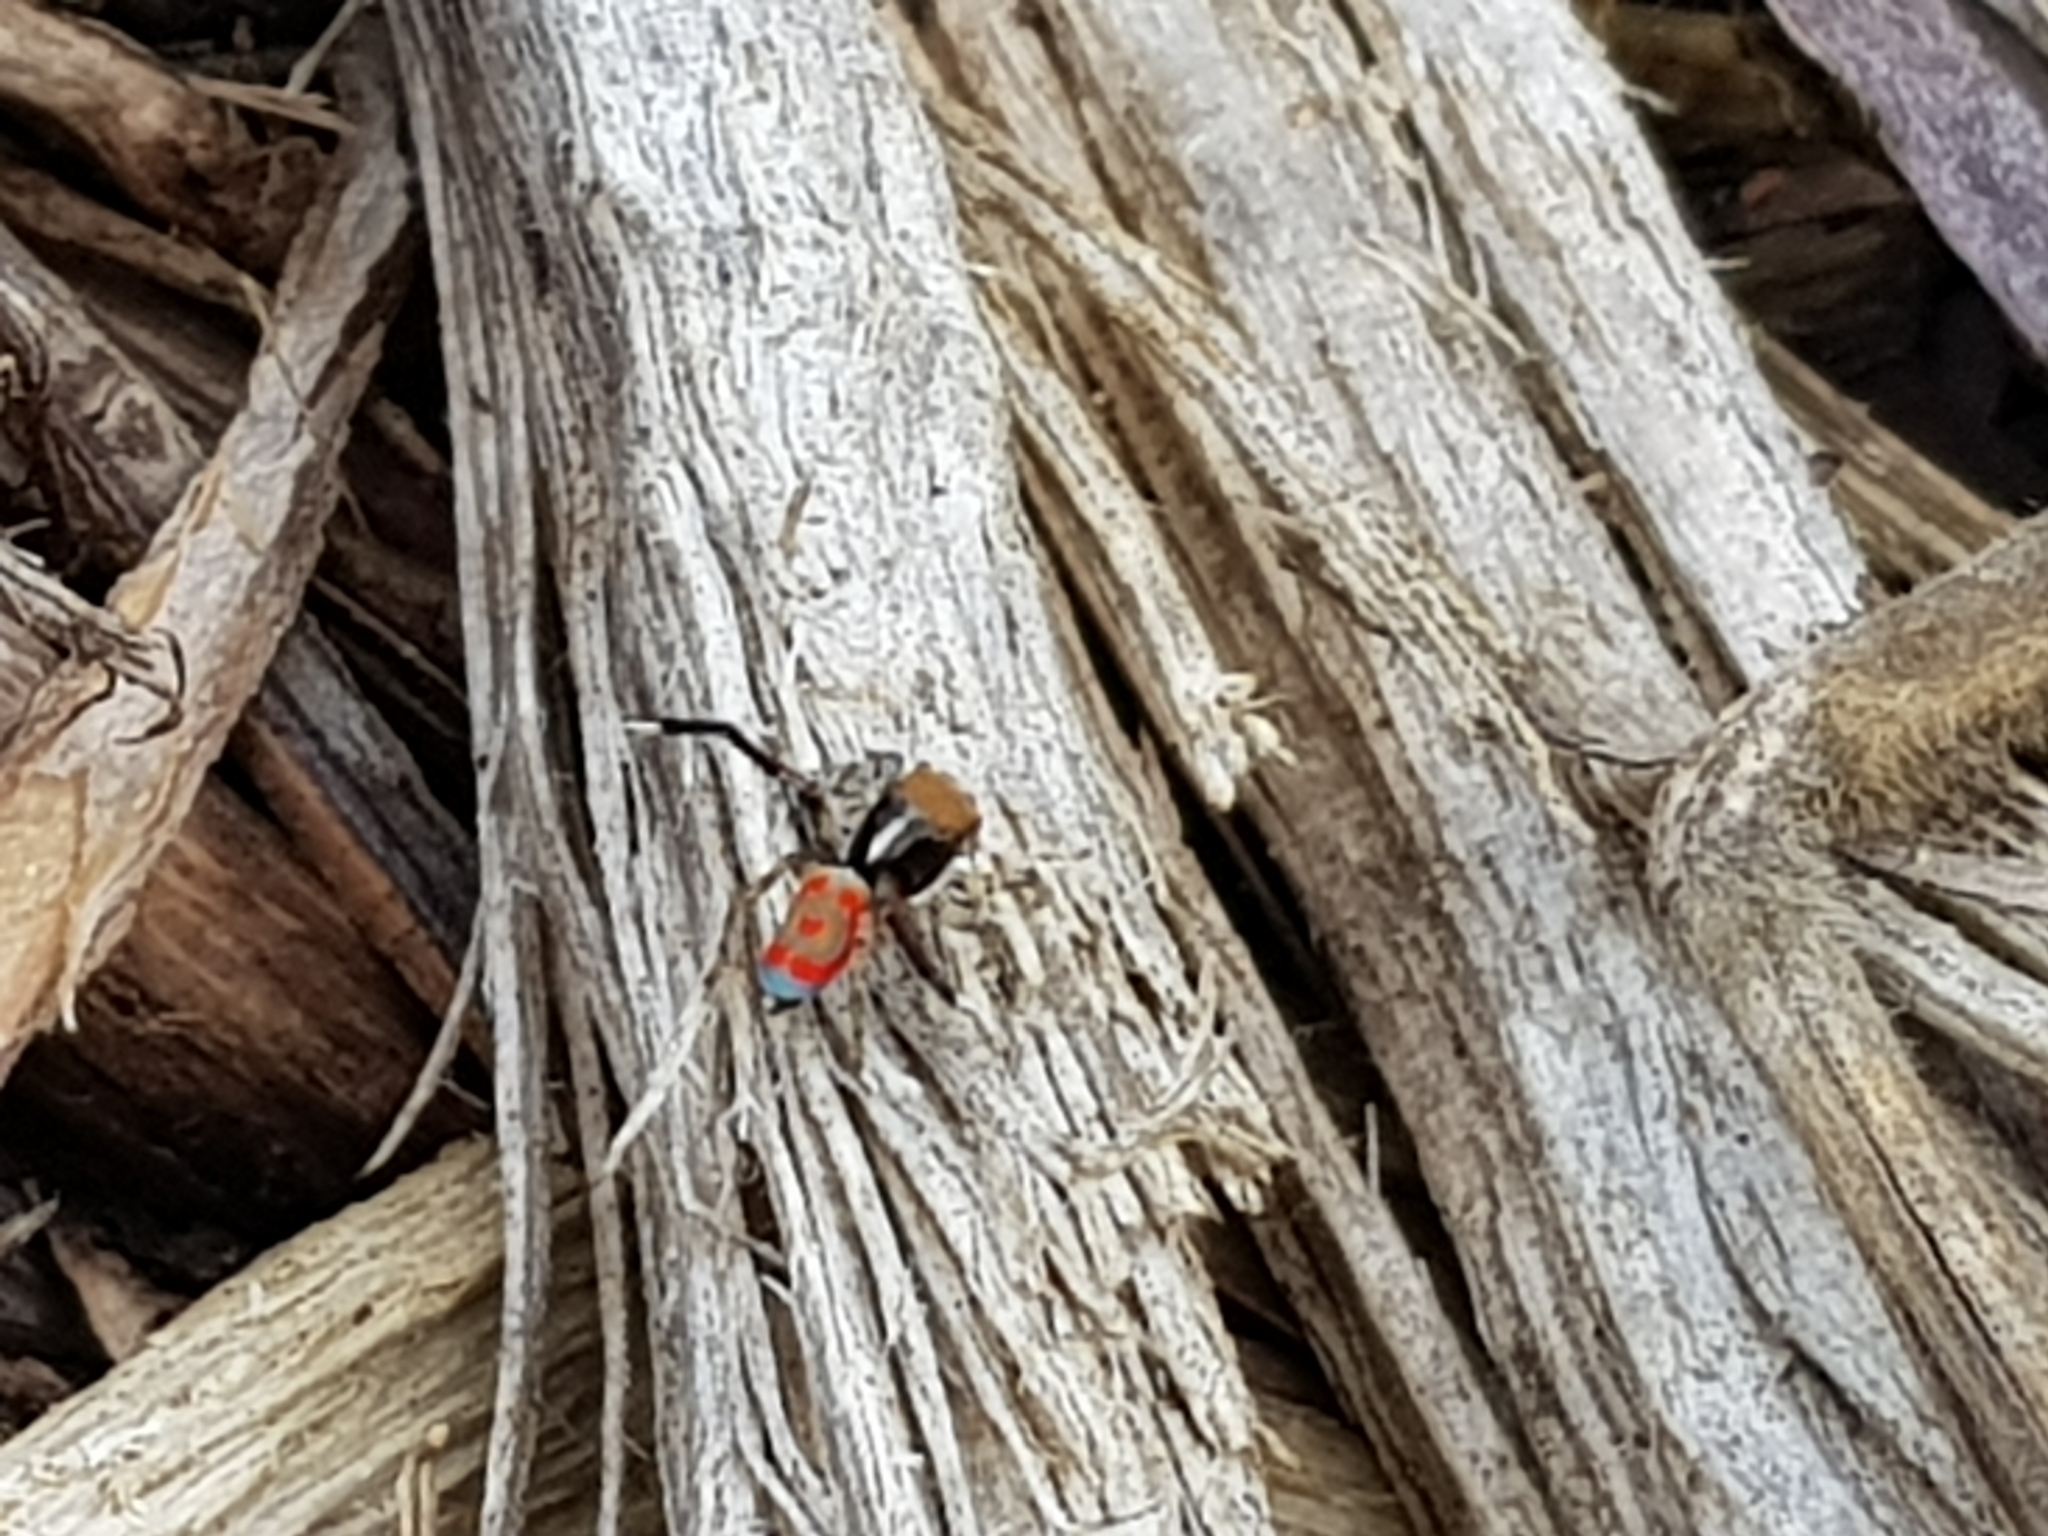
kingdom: Animalia
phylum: Arthropoda
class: Arachnida
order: Araneae
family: Salticidae
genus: Maratus
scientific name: Maratus pavonis
